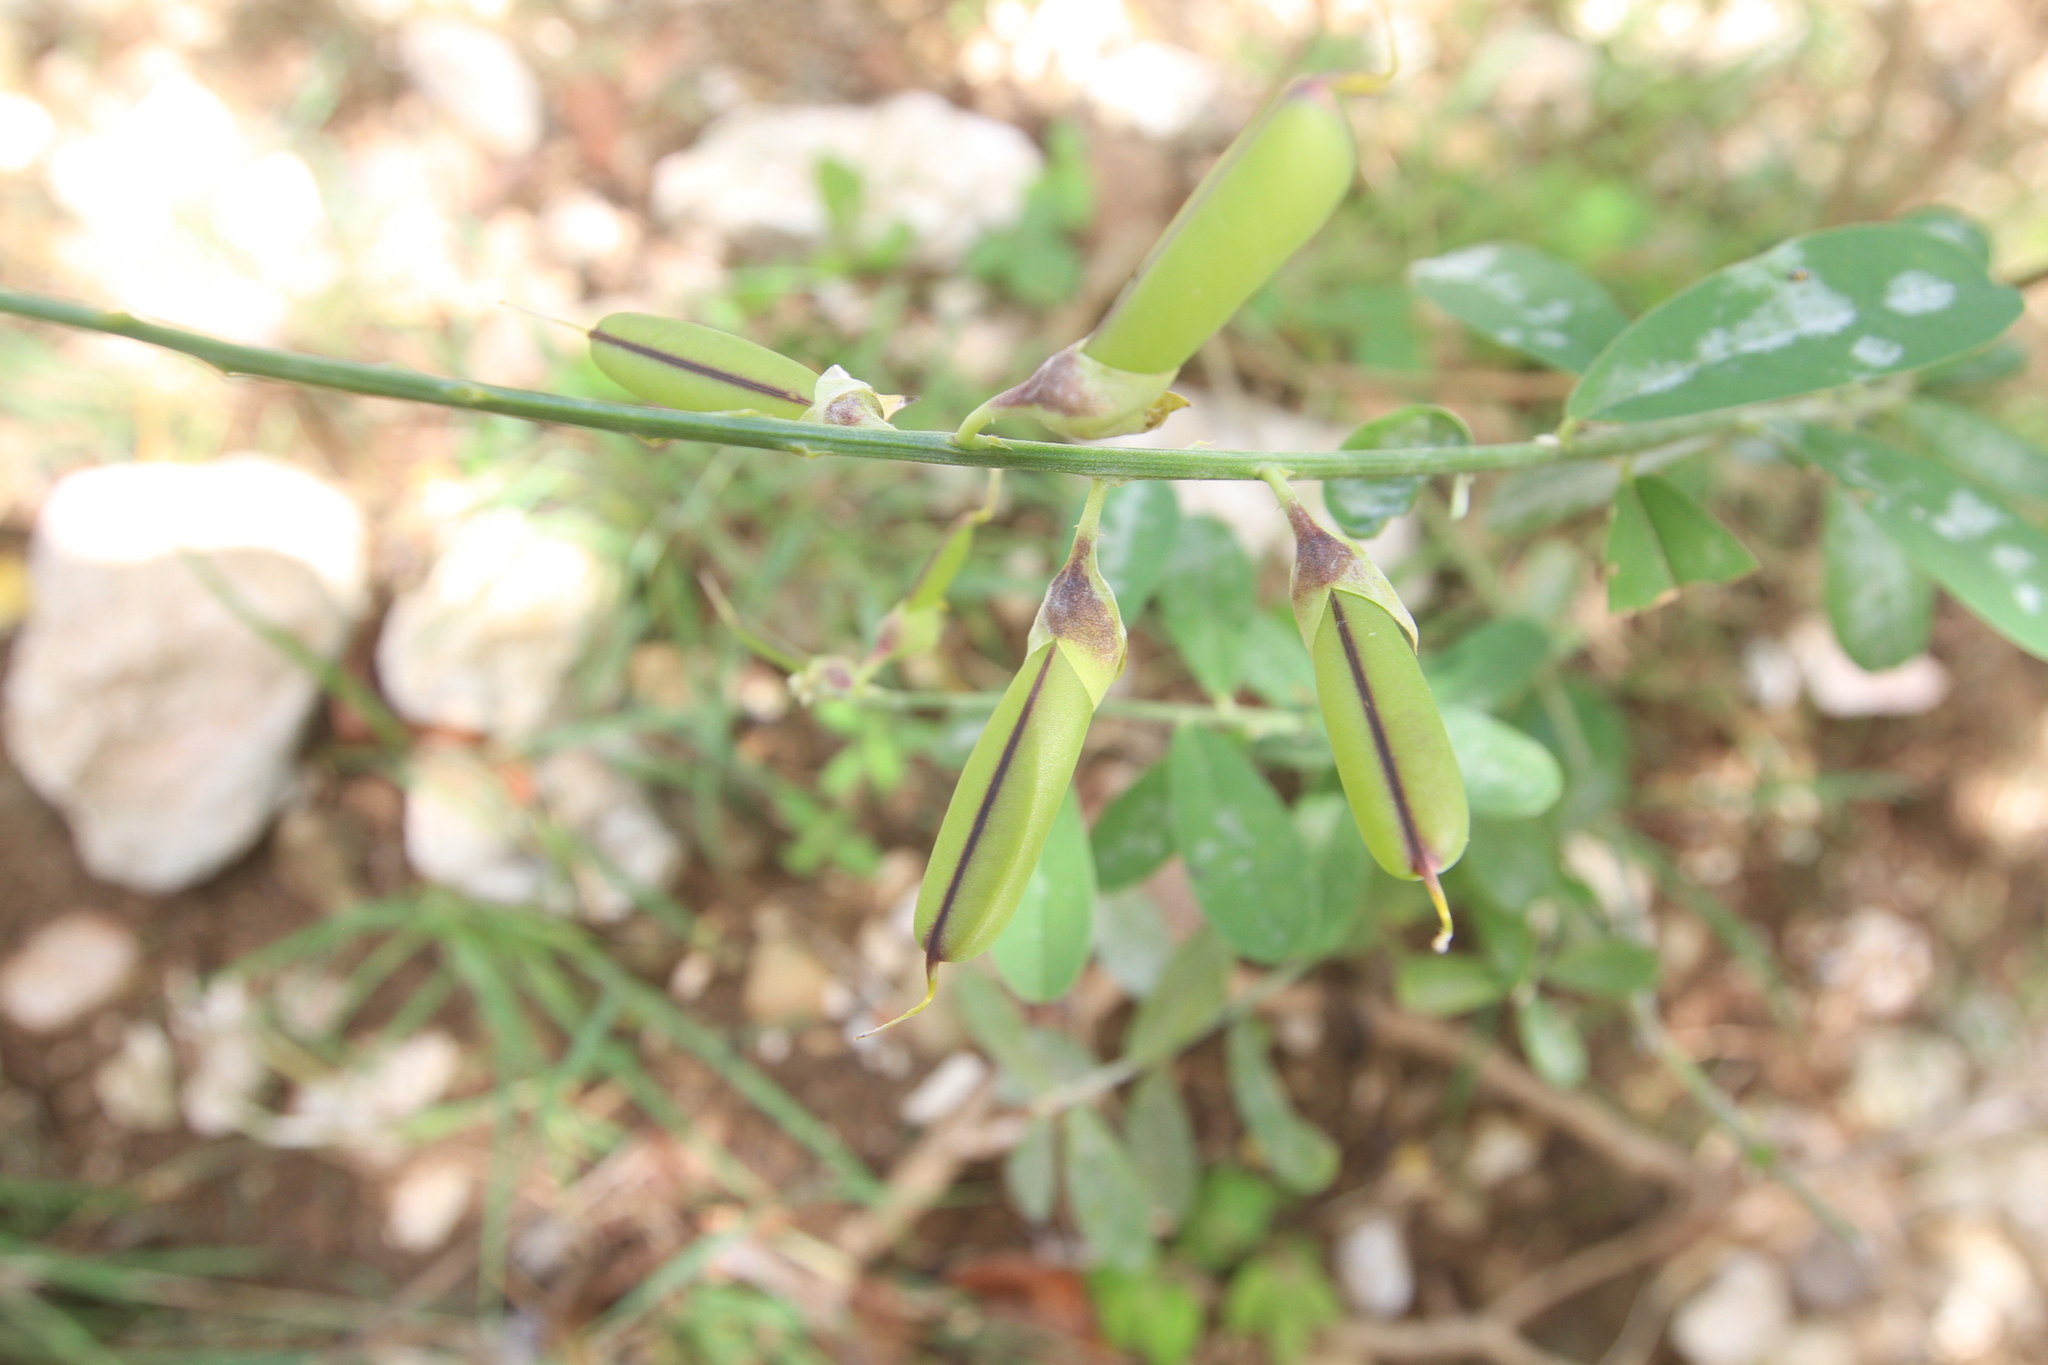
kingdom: Plantae
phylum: Tracheophyta
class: Magnoliopsida
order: Fabales
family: Fabaceae
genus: Crotalaria
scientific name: Crotalaria retusa
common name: Rattleweed
